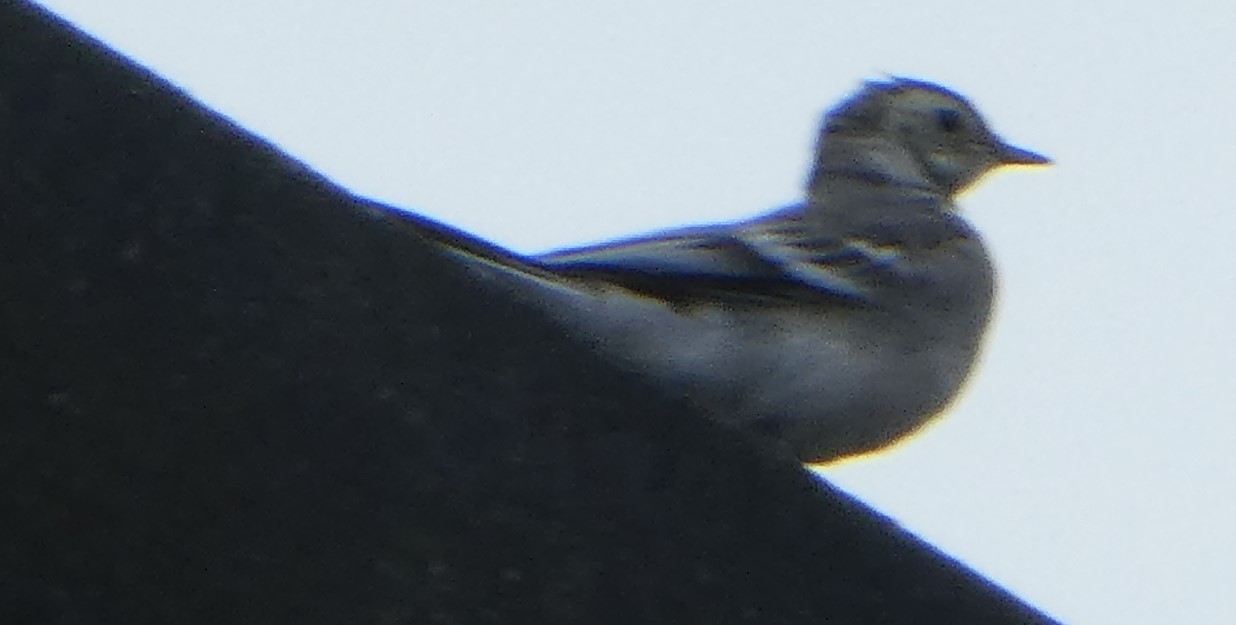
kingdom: Animalia
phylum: Chordata
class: Aves
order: Passeriformes
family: Motacillidae
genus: Motacilla
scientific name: Motacilla alba
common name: White wagtail
